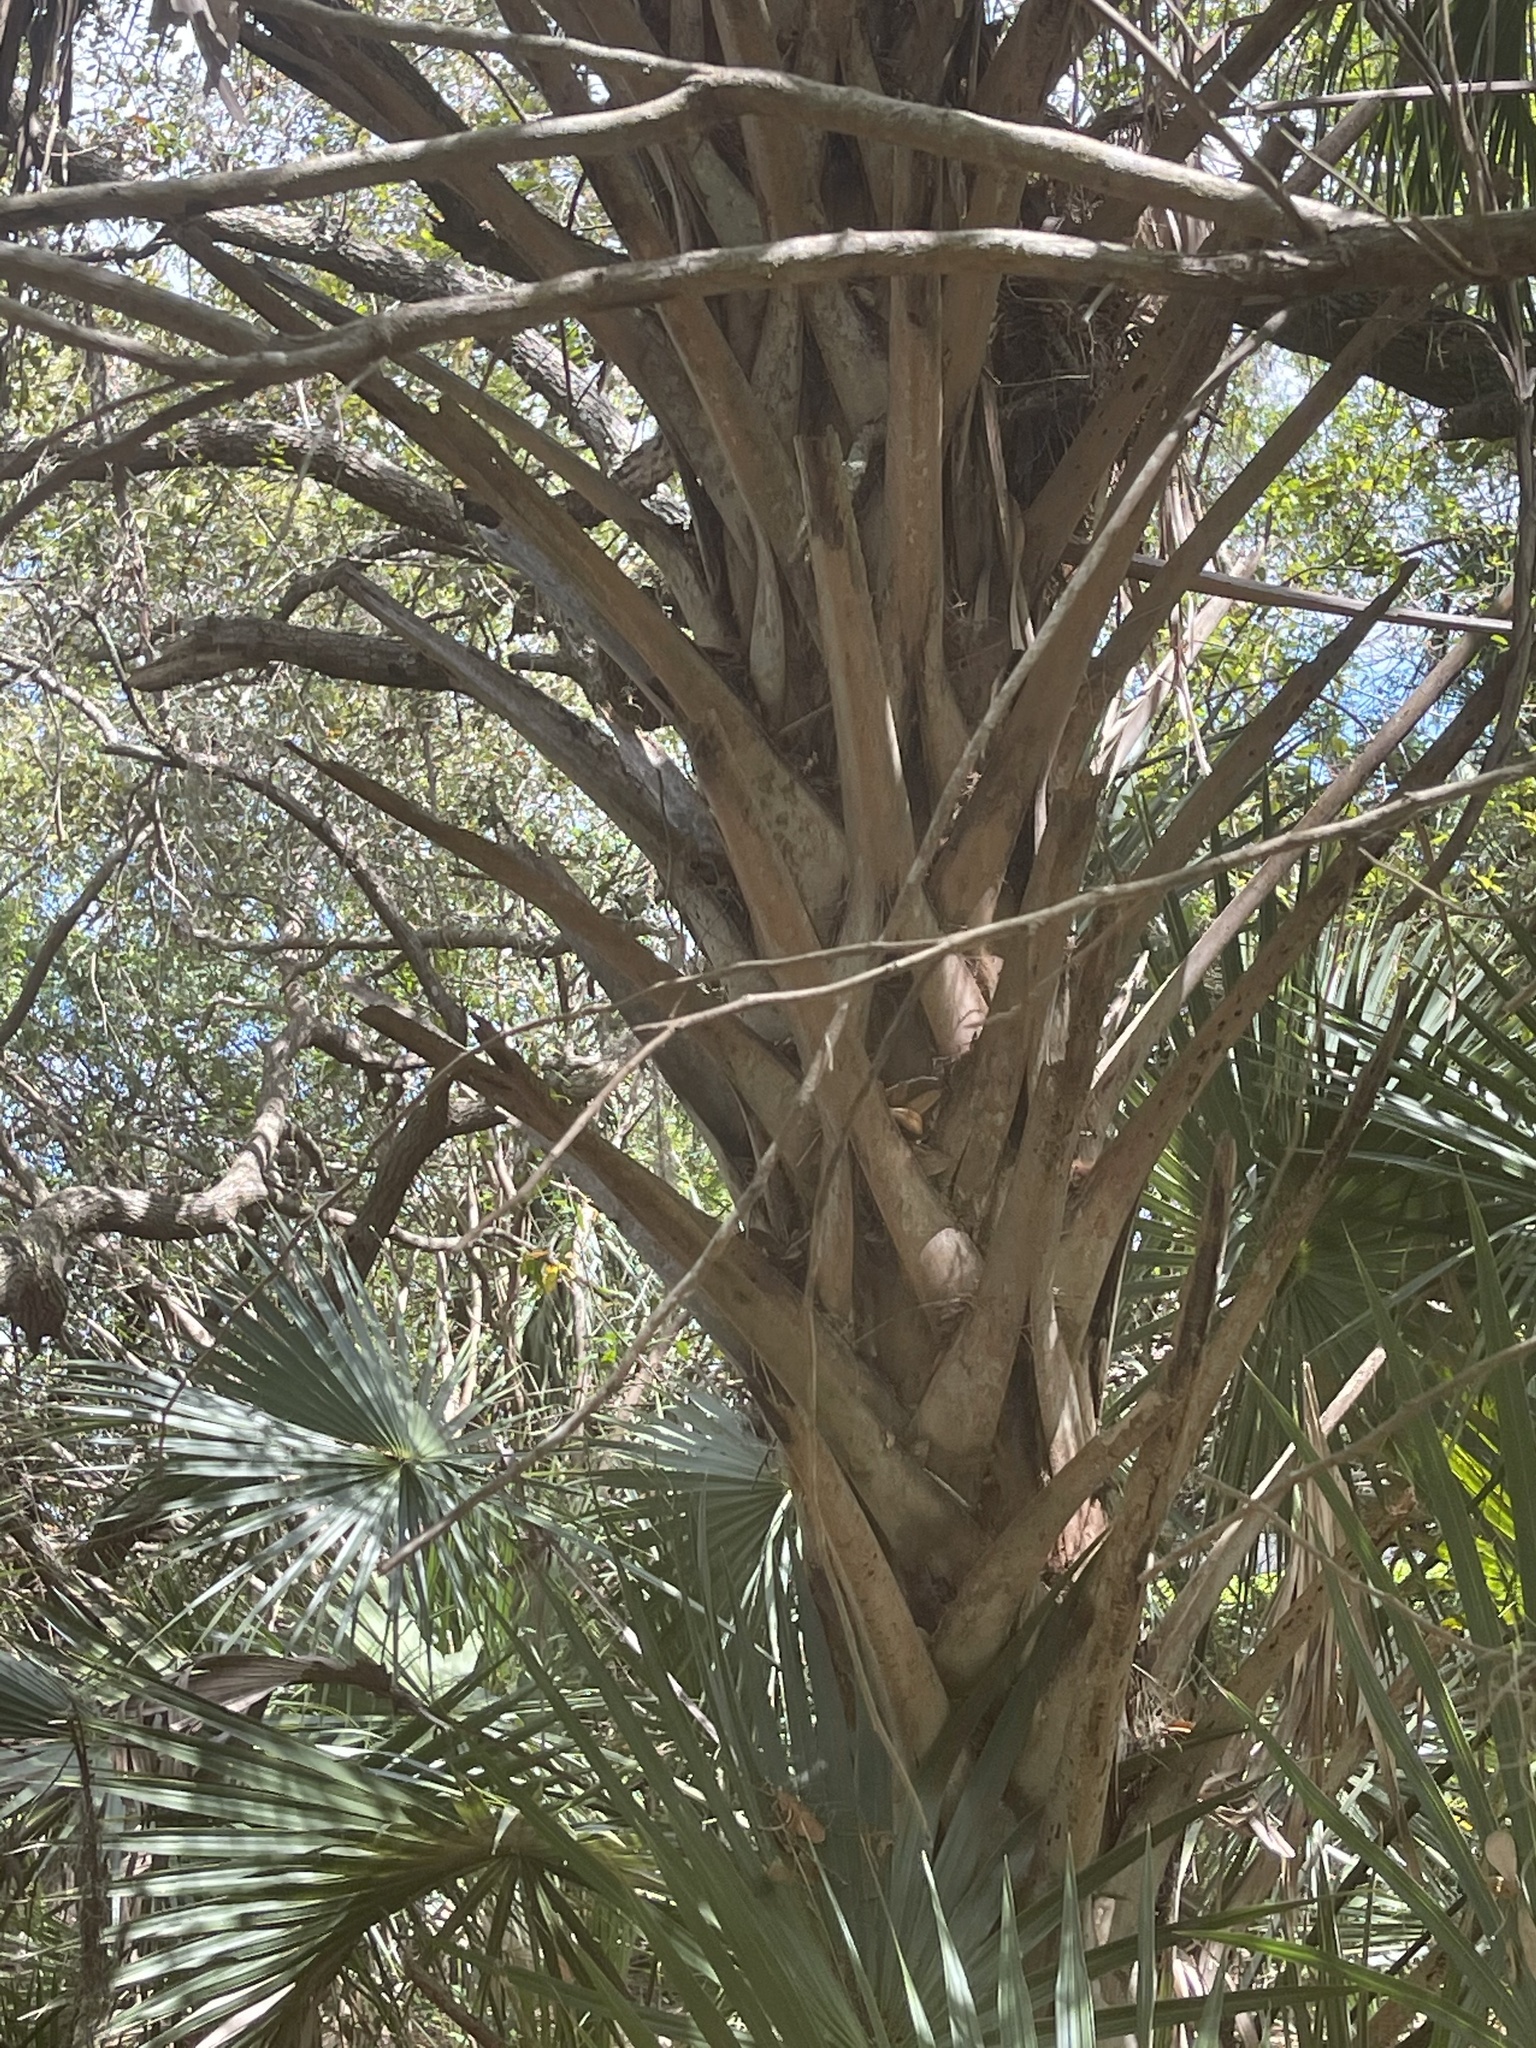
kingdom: Plantae
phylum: Tracheophyta
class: Liliopsida
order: Arecales
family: Arecaceae
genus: Sabal
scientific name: Sabal palmetto
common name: Blue palmetto
